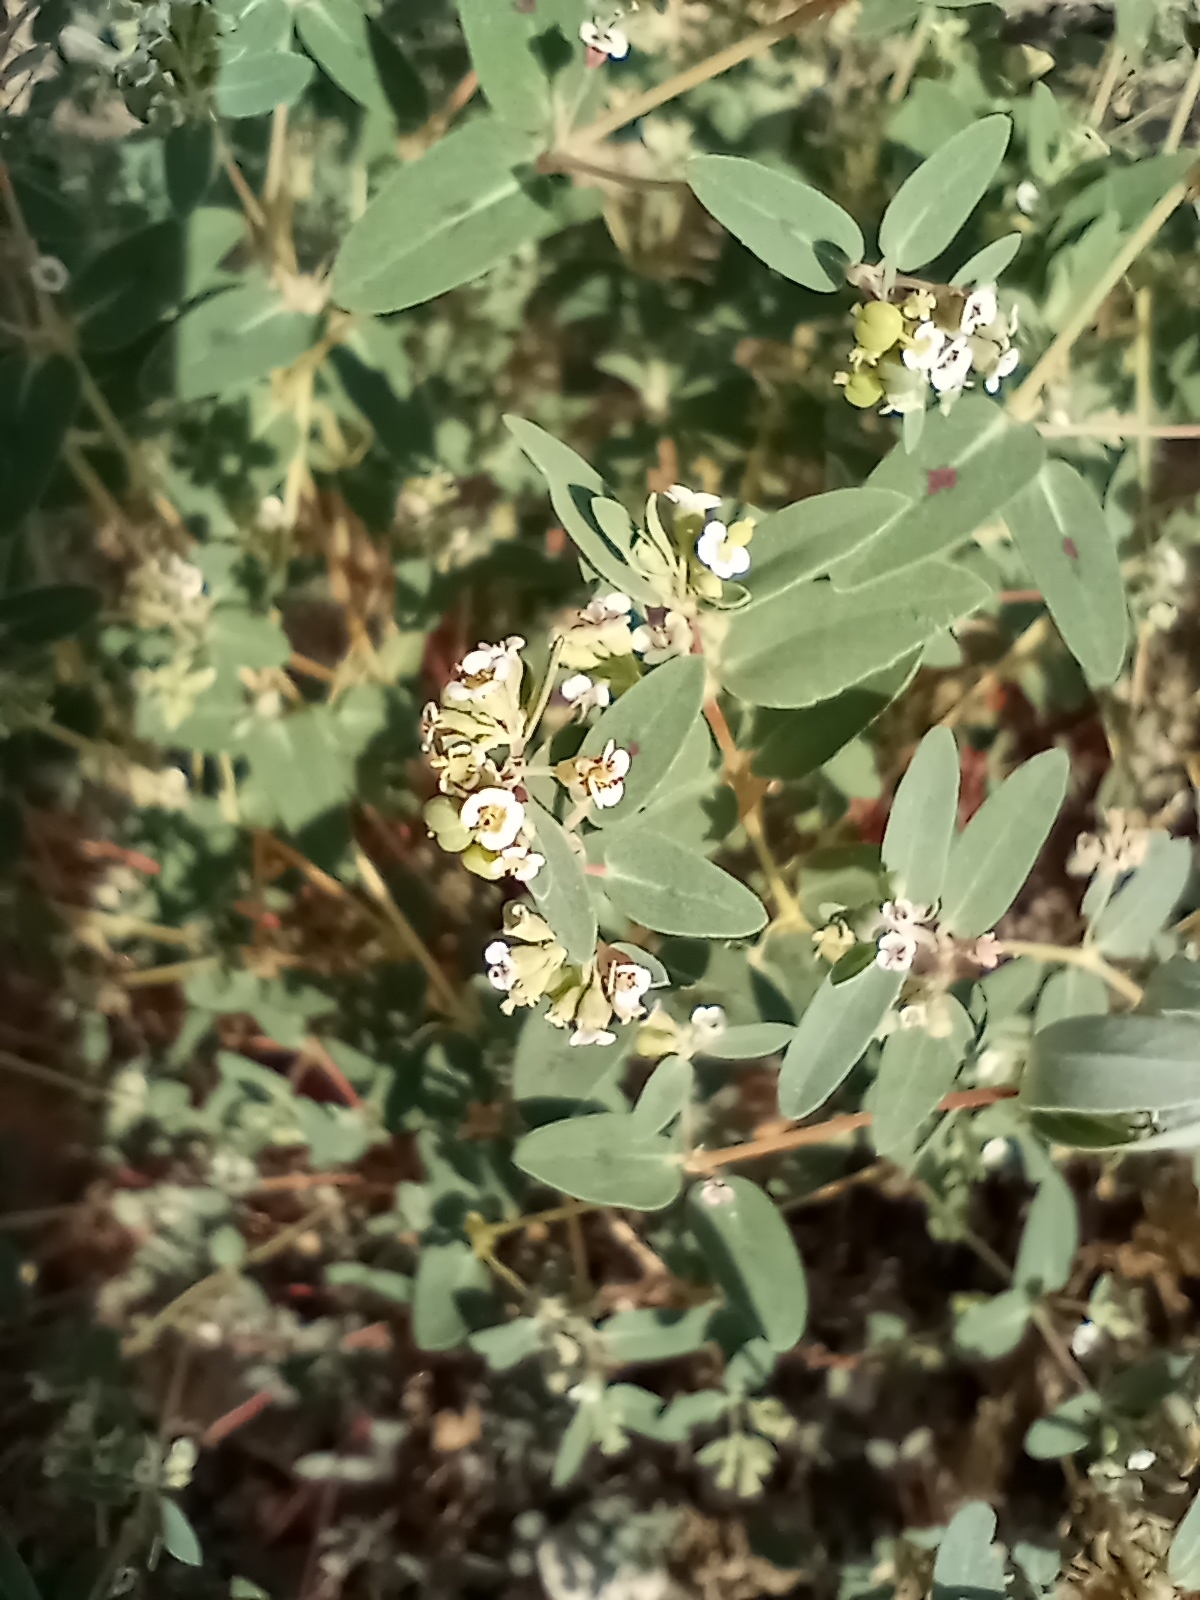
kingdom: Plantae
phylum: Tracheophyta
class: Magnoliopsida
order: Malpighiales
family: Euphorbiaceae
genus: Euphorbia
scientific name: Euphorbia capitellata
